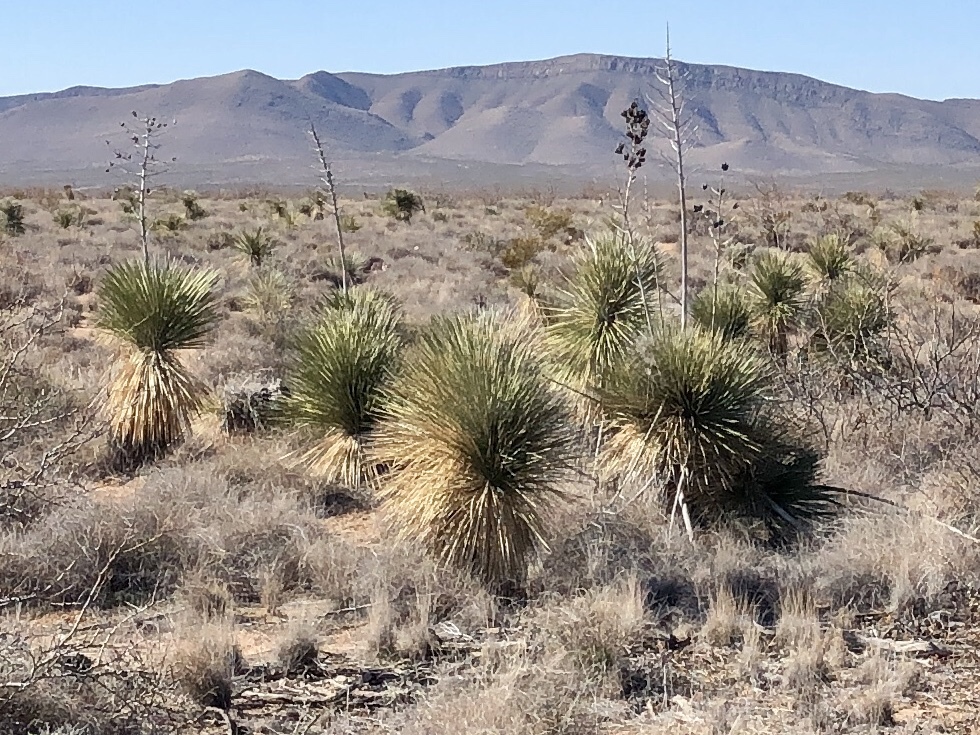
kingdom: Plantae
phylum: Tracheophyta
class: Liliopsida
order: Asparagales
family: Asparagaceae
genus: Yucca
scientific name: Yucca elata
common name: Palmella
